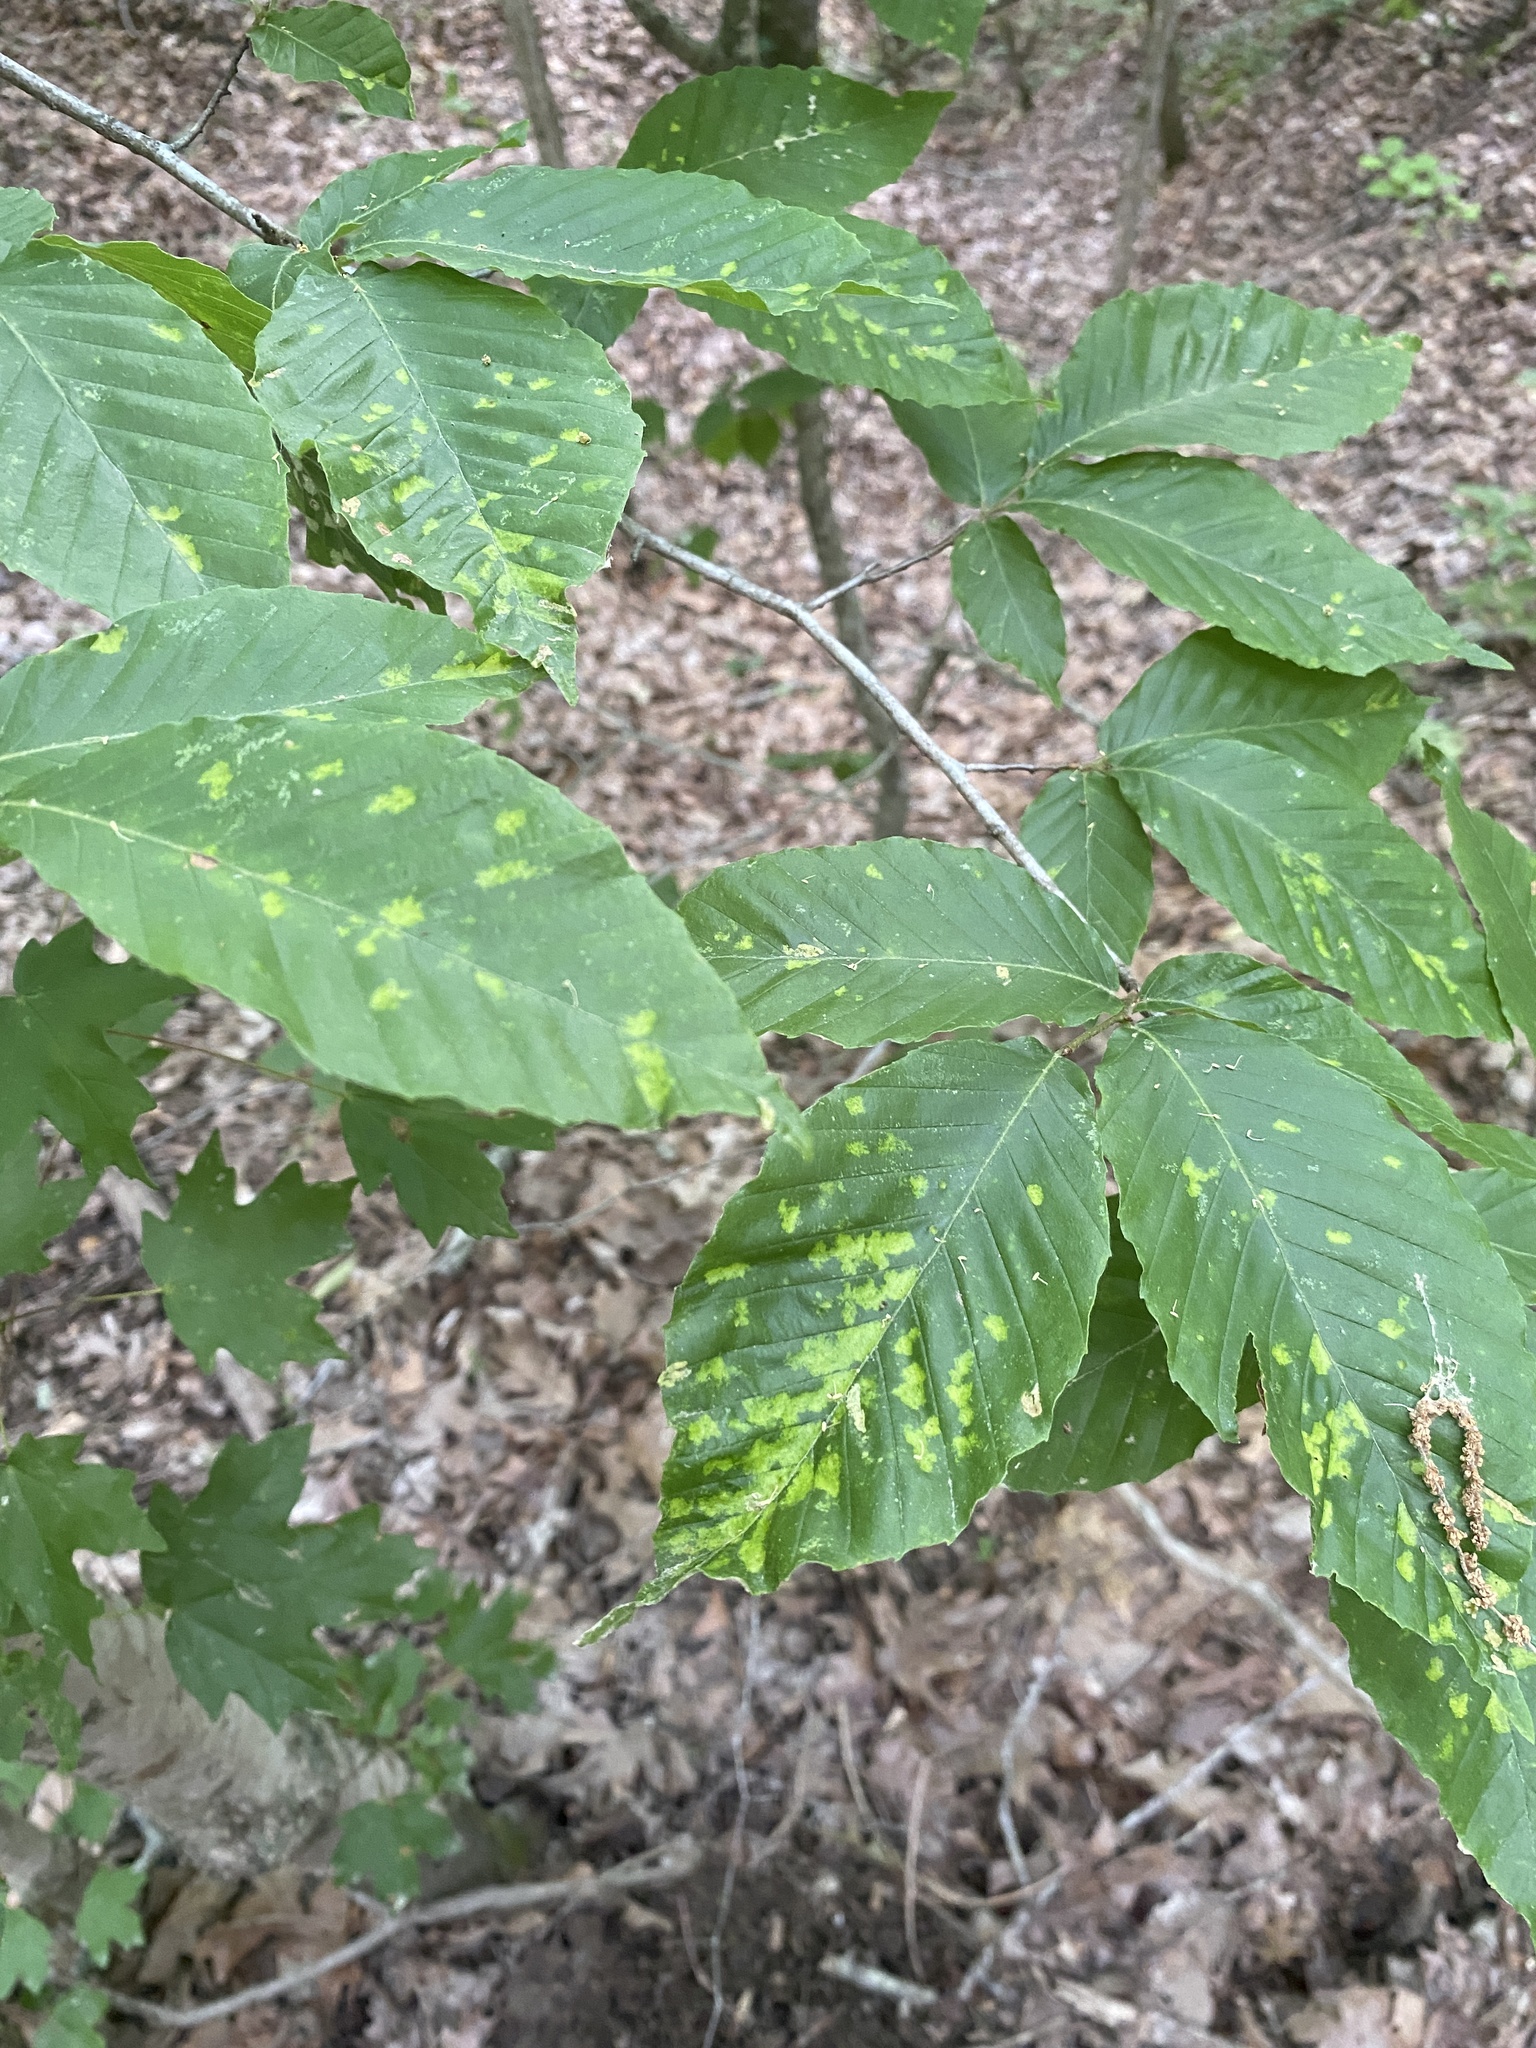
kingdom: Animalia
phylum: Arthropoda
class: Arachnida
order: Trombidiformes
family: Eriophyidae
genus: Acalitus
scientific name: Acalitus
